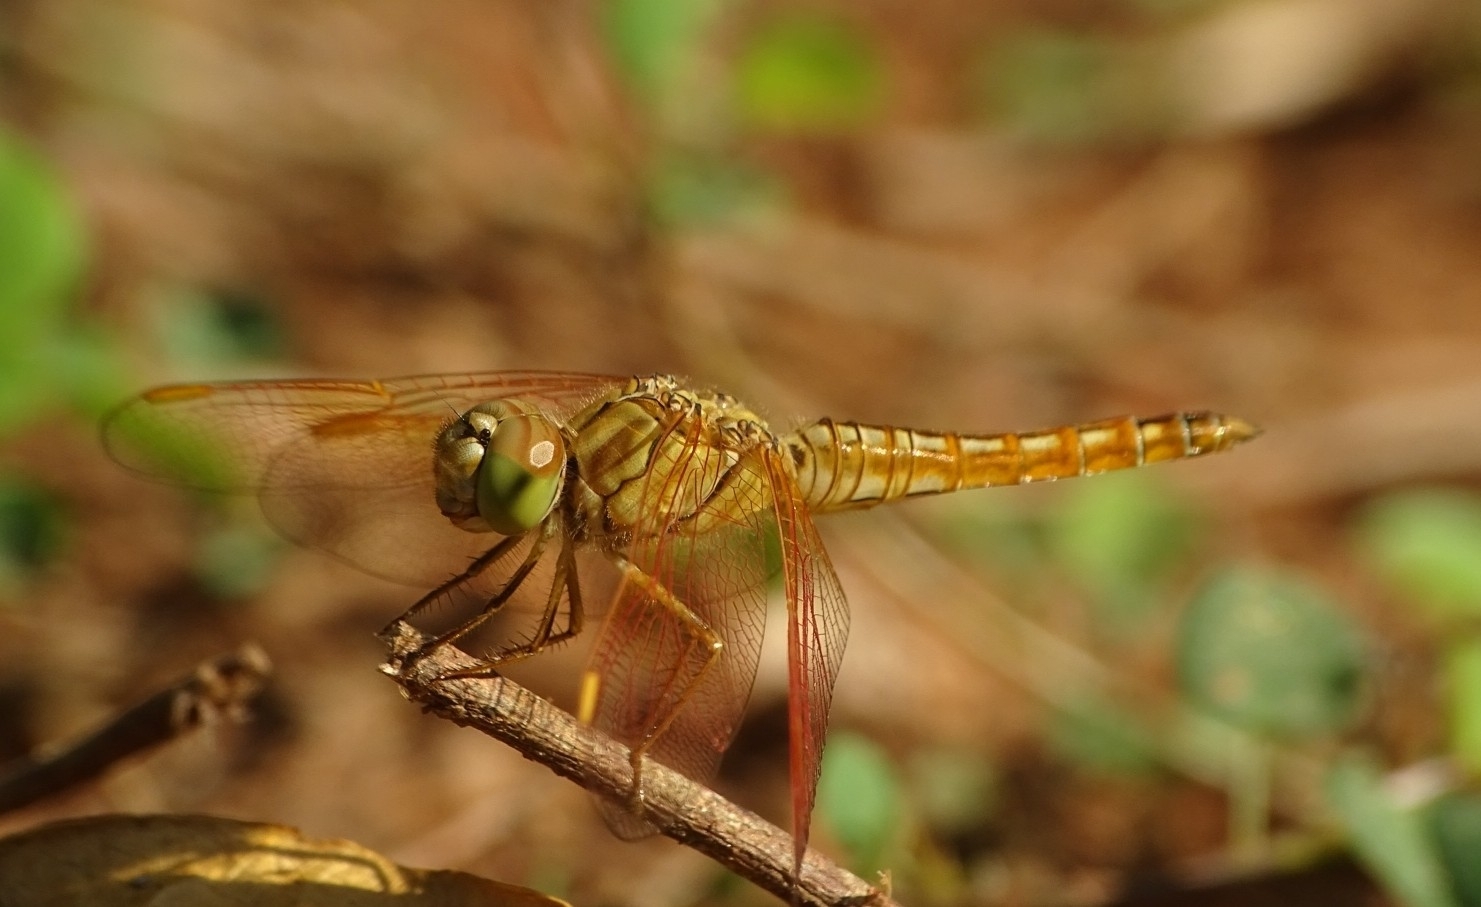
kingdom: Animalia
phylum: Arthropoda
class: Insecta
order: Odonata
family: Libellulidae
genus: Brachythemis
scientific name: Brachythemis contaminata
